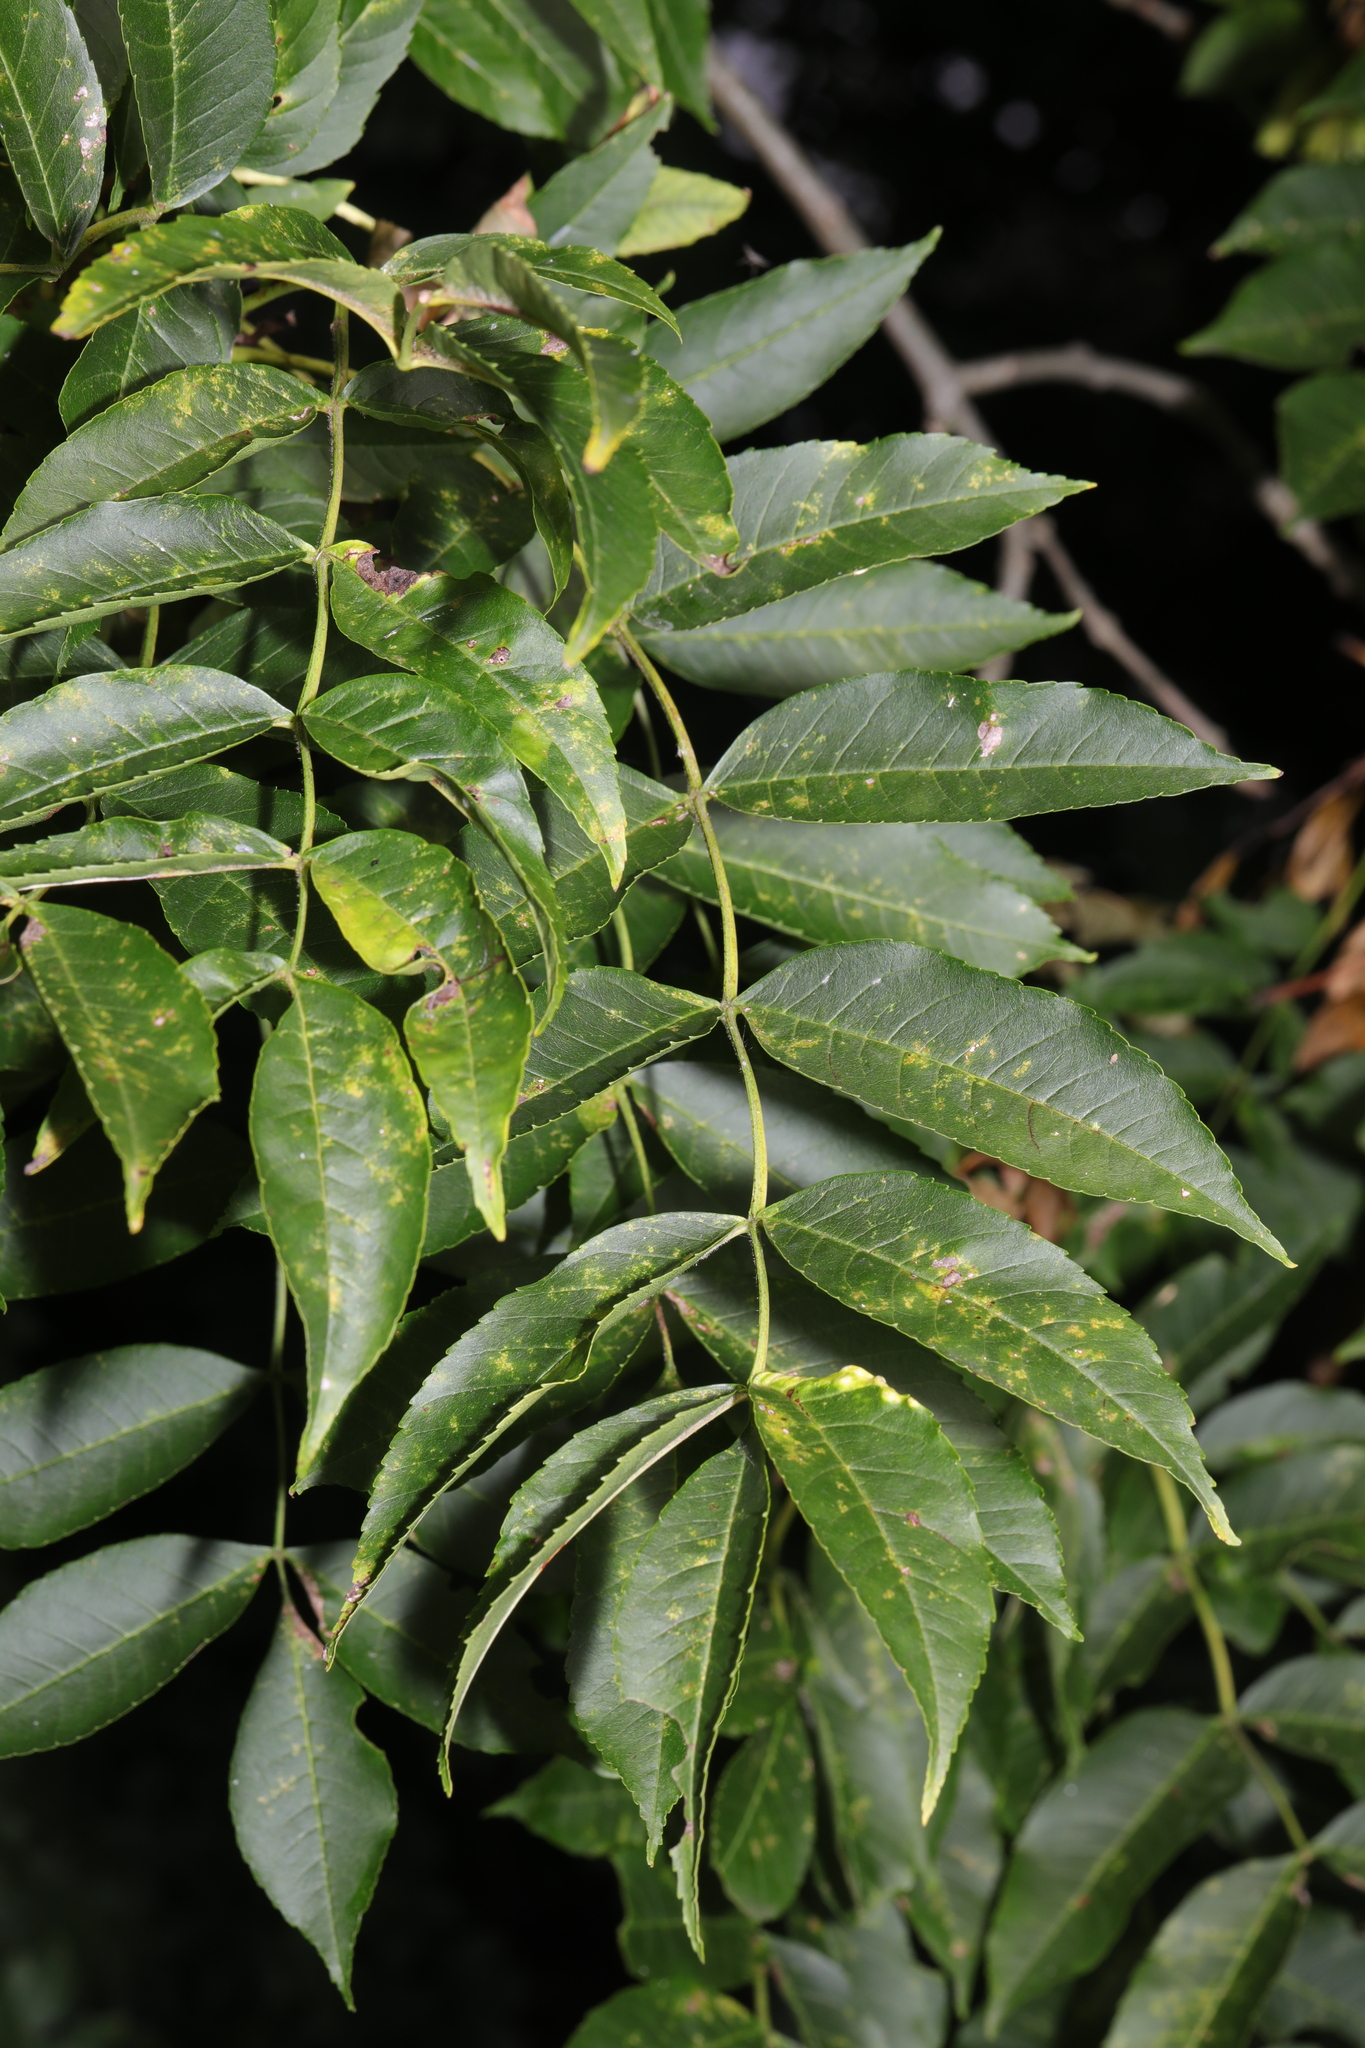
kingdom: Plantae
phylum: Tracheophyta
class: Magnoliopsida
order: Lamiales
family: Oleaceae
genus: Fraxinus
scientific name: Fraxinus excelsior
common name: European ash
